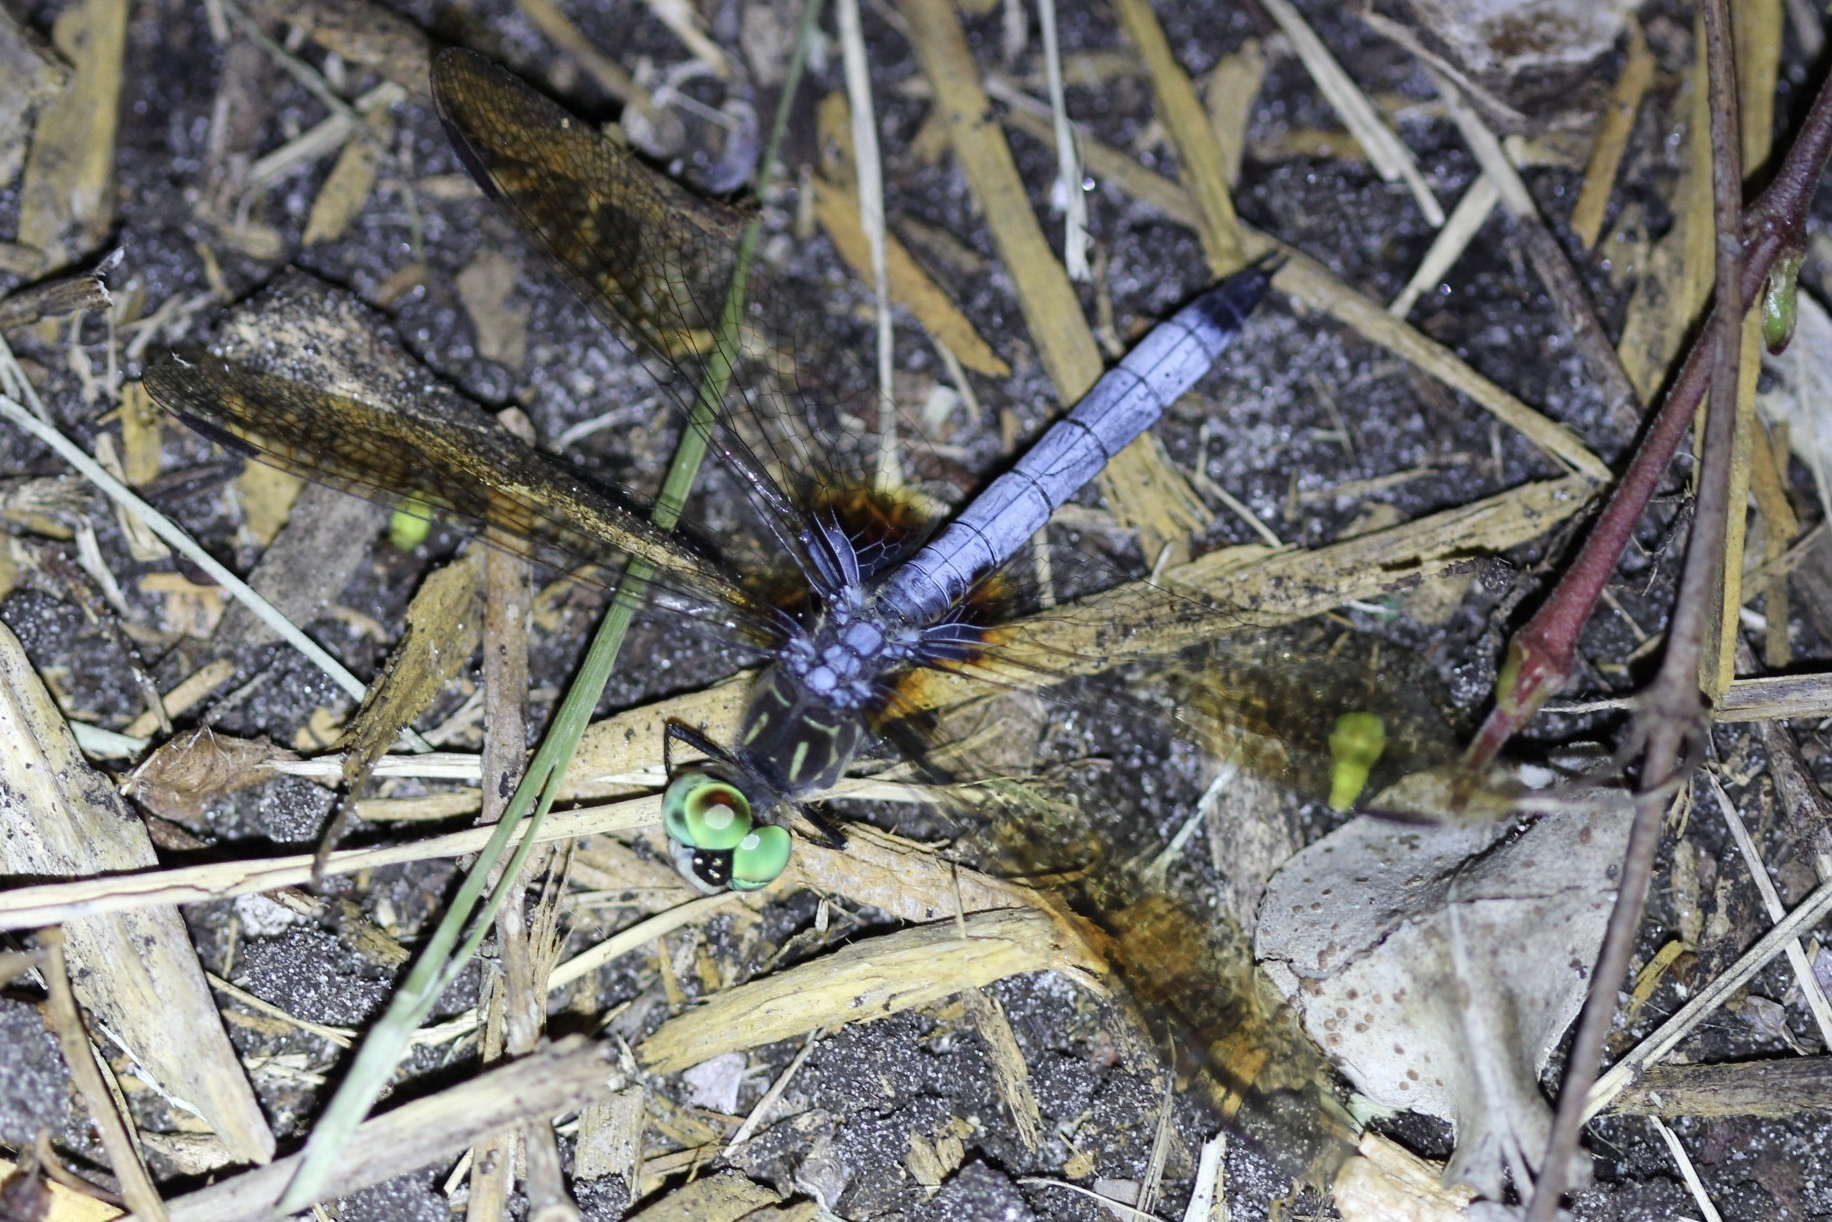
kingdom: Animalia
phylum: Arthropoda
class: Insecta
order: Odonata
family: Libellulidae
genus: Pachydiplax
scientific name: Pachydiplax longipennis
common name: Blue dasher
